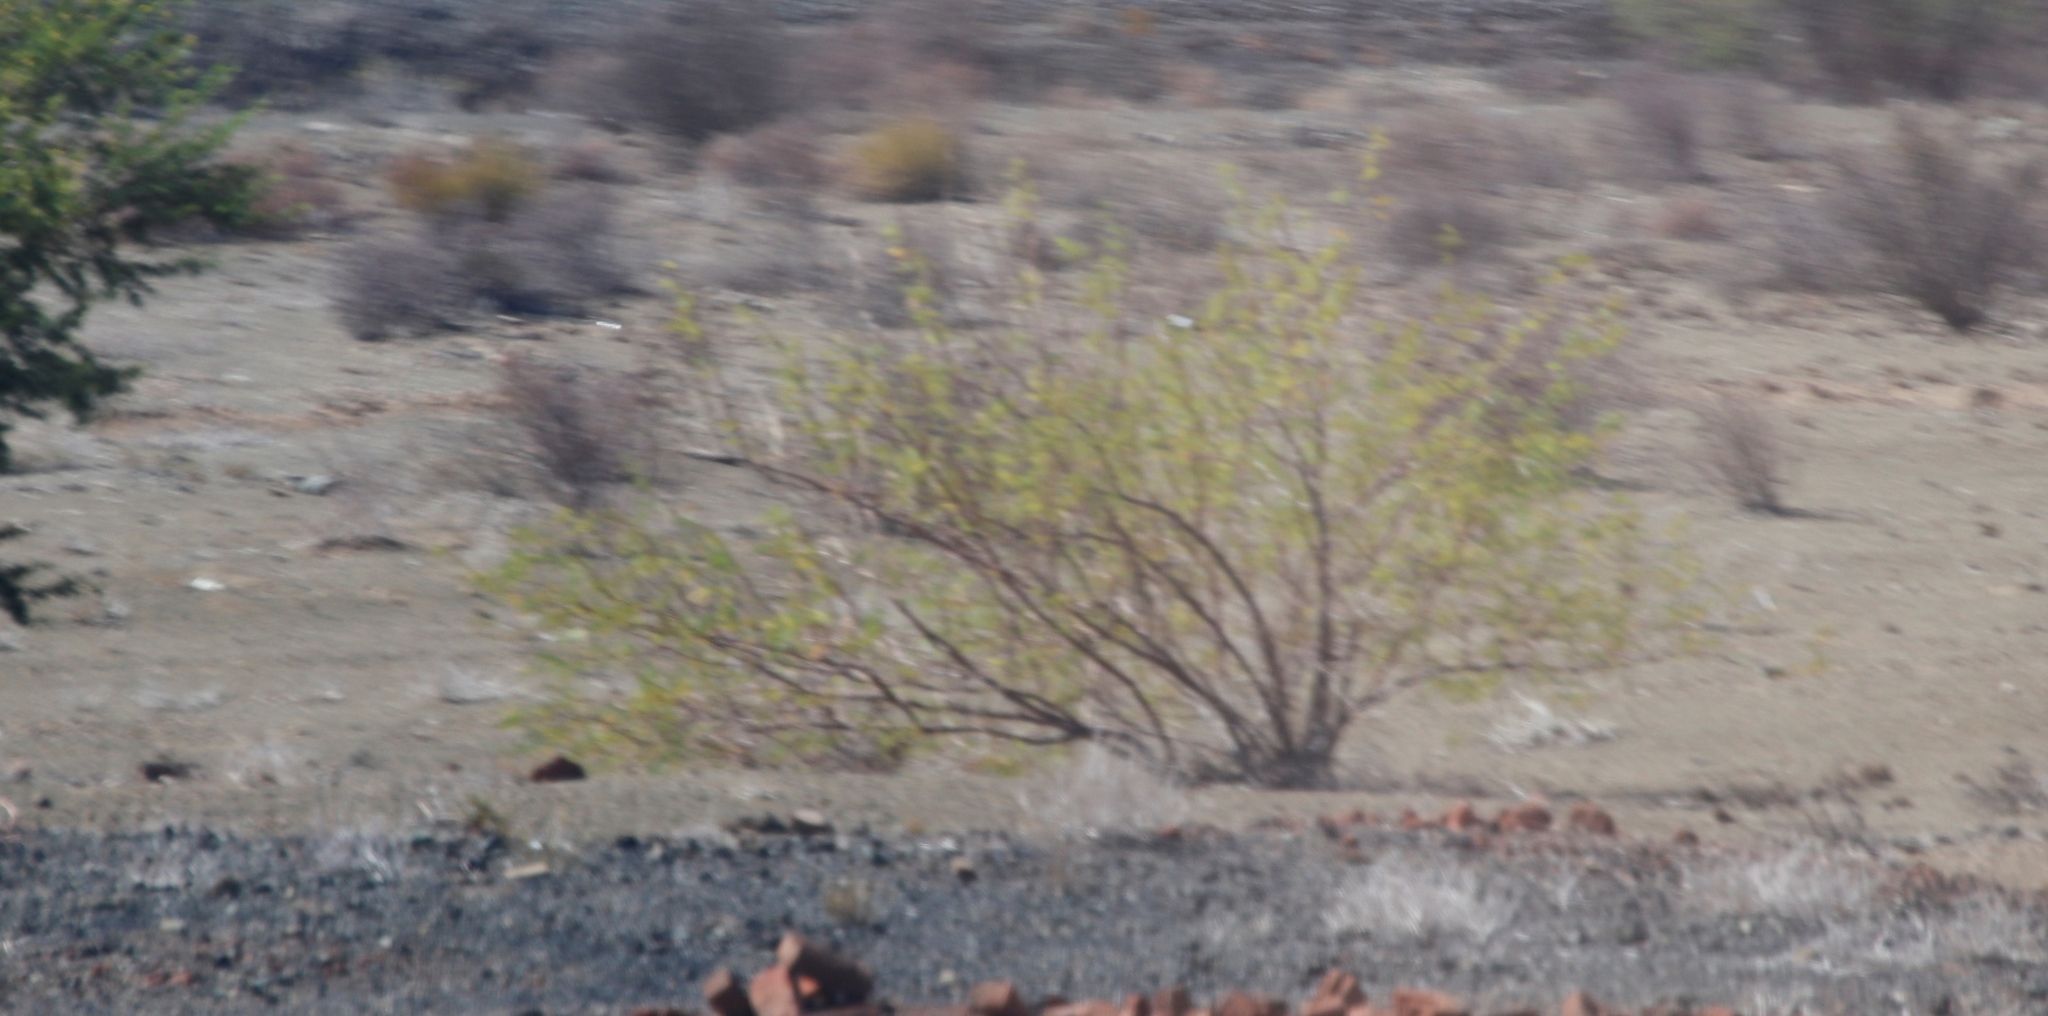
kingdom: Plantae
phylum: Tracheophyta
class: Magnoliopsida
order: Fabales
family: Fabaceae
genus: Prosopis
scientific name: Prosopis pubescens
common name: Screw-bean
